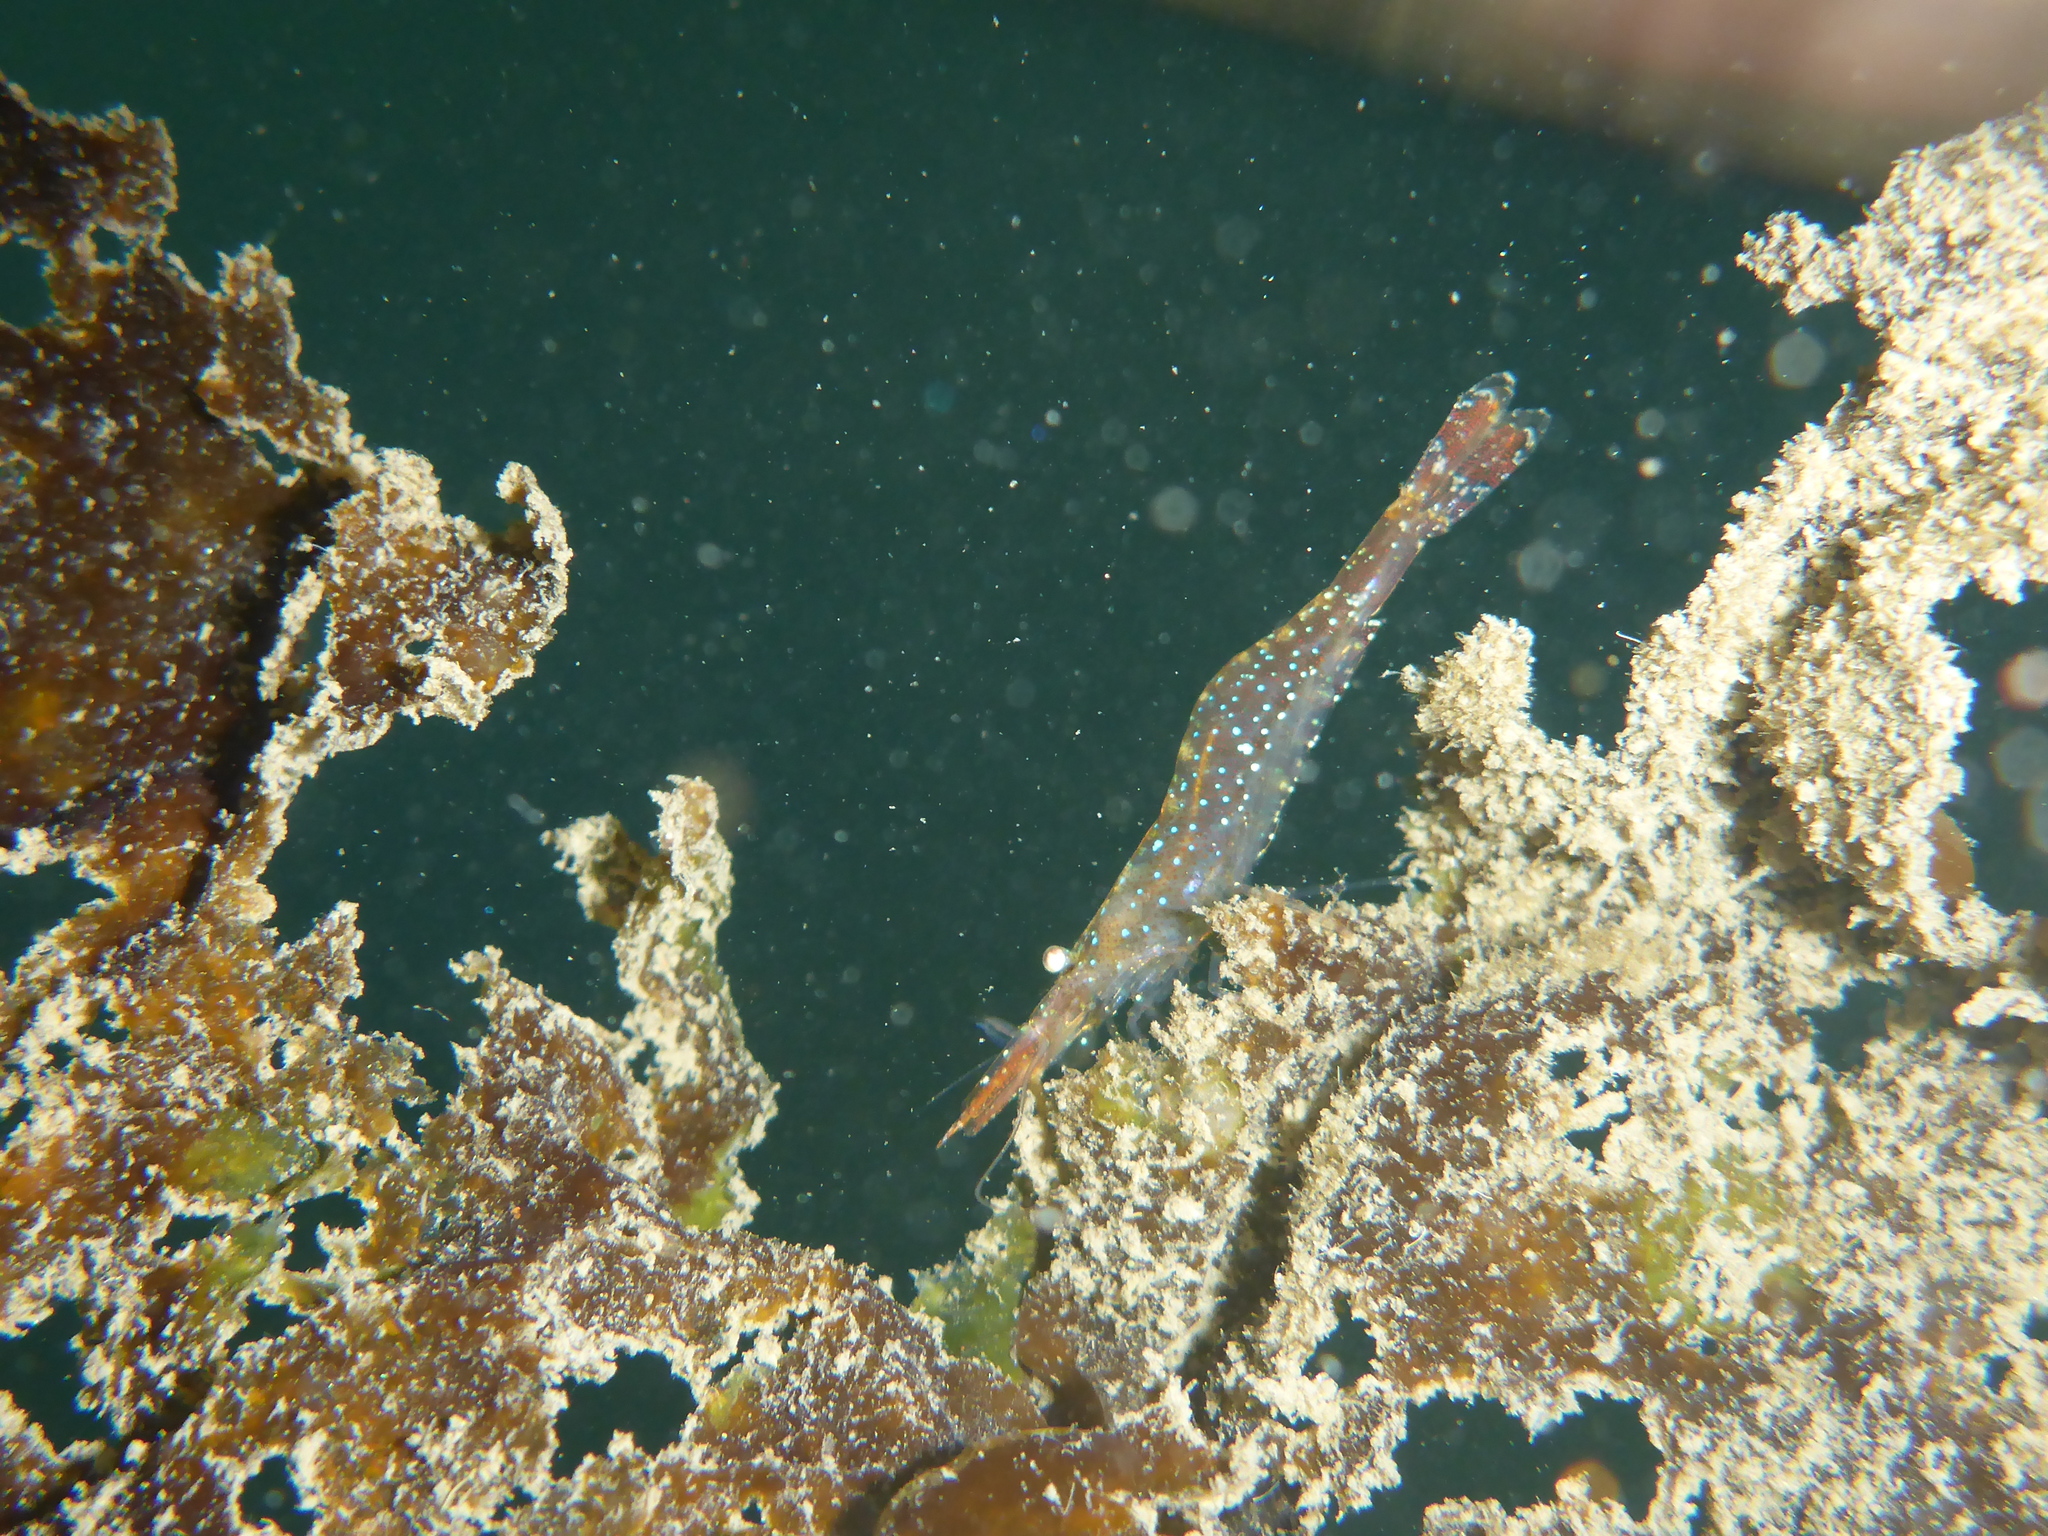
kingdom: Animalia
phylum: Arthropoda
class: Malacostraca
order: Decapoda
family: Thoridae
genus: Heptacarpus
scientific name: Heptacarpus stylus
